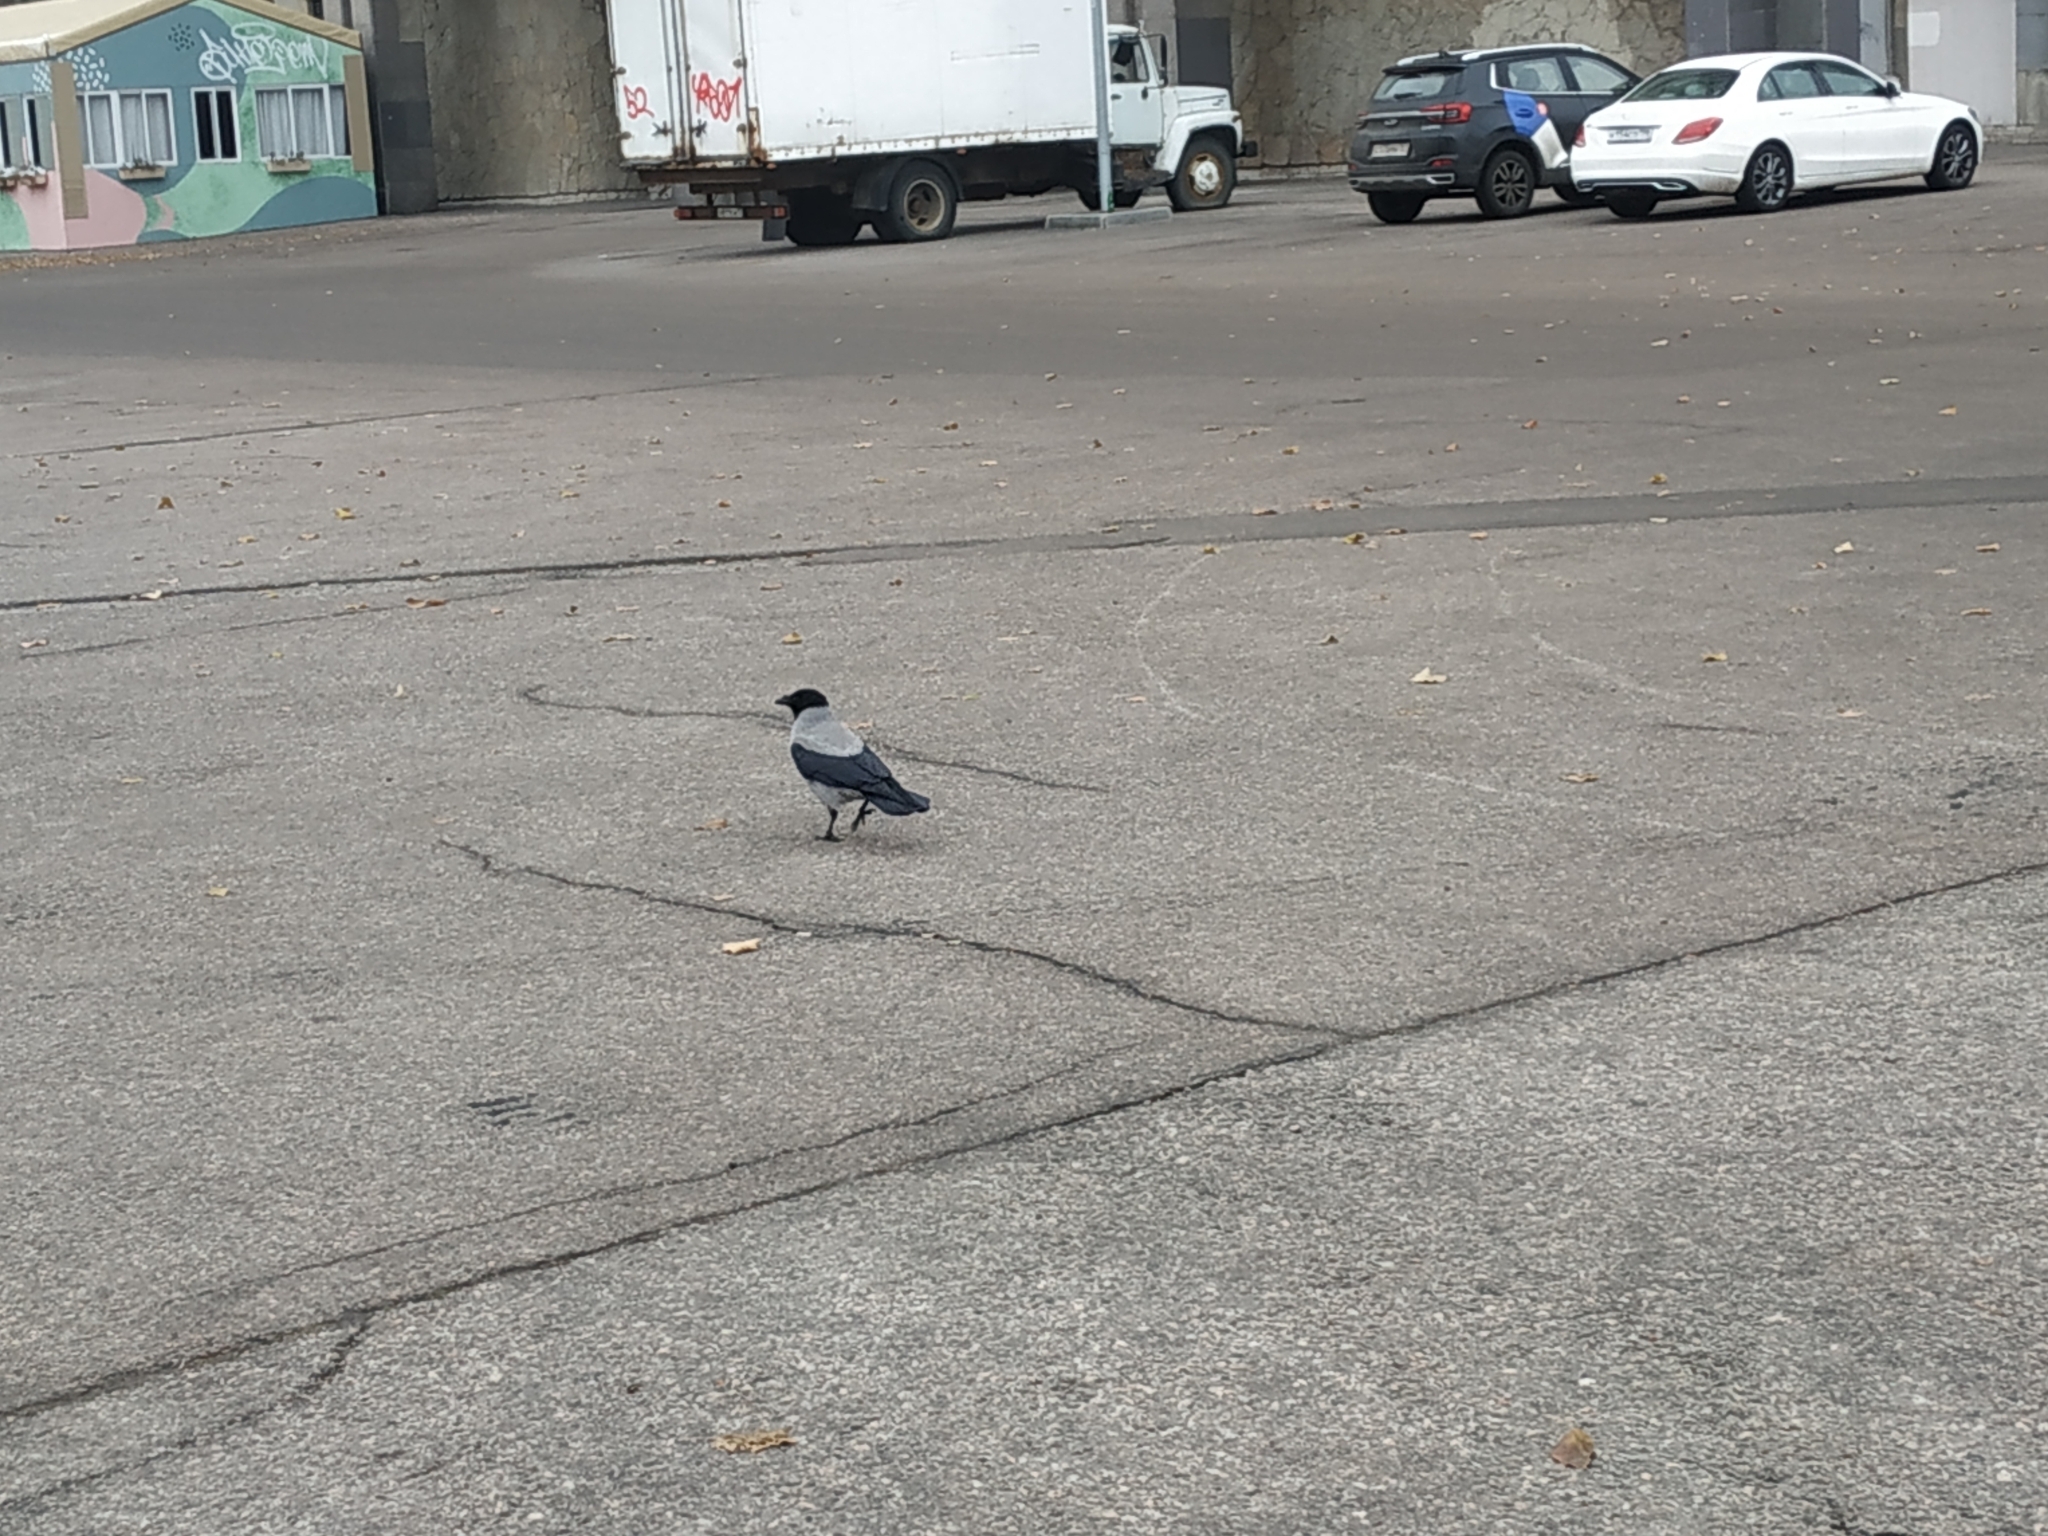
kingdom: Animalia
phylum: Chordata
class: Aves
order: Passeriformes
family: Corvidae
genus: Corvus
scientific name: Corvus cornix
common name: Hooded crow
